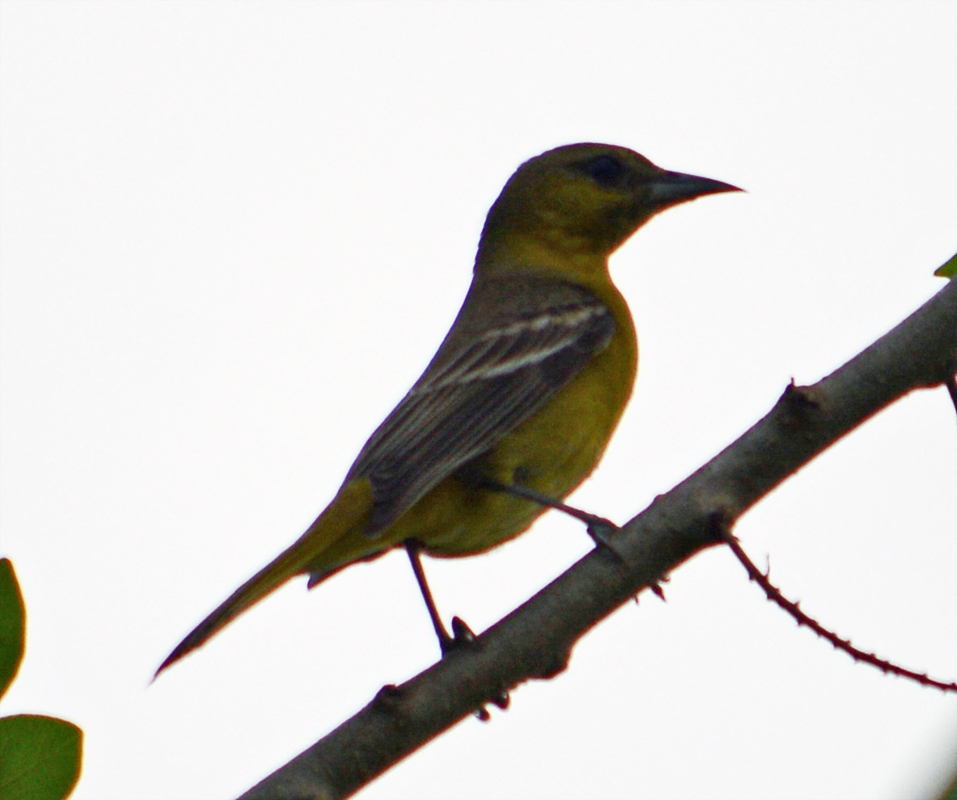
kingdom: Animalia
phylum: Chordata
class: Aves
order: Passeriformes
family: Icteridae
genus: Icterus
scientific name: Icterus spurius
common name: Orchard oriole
